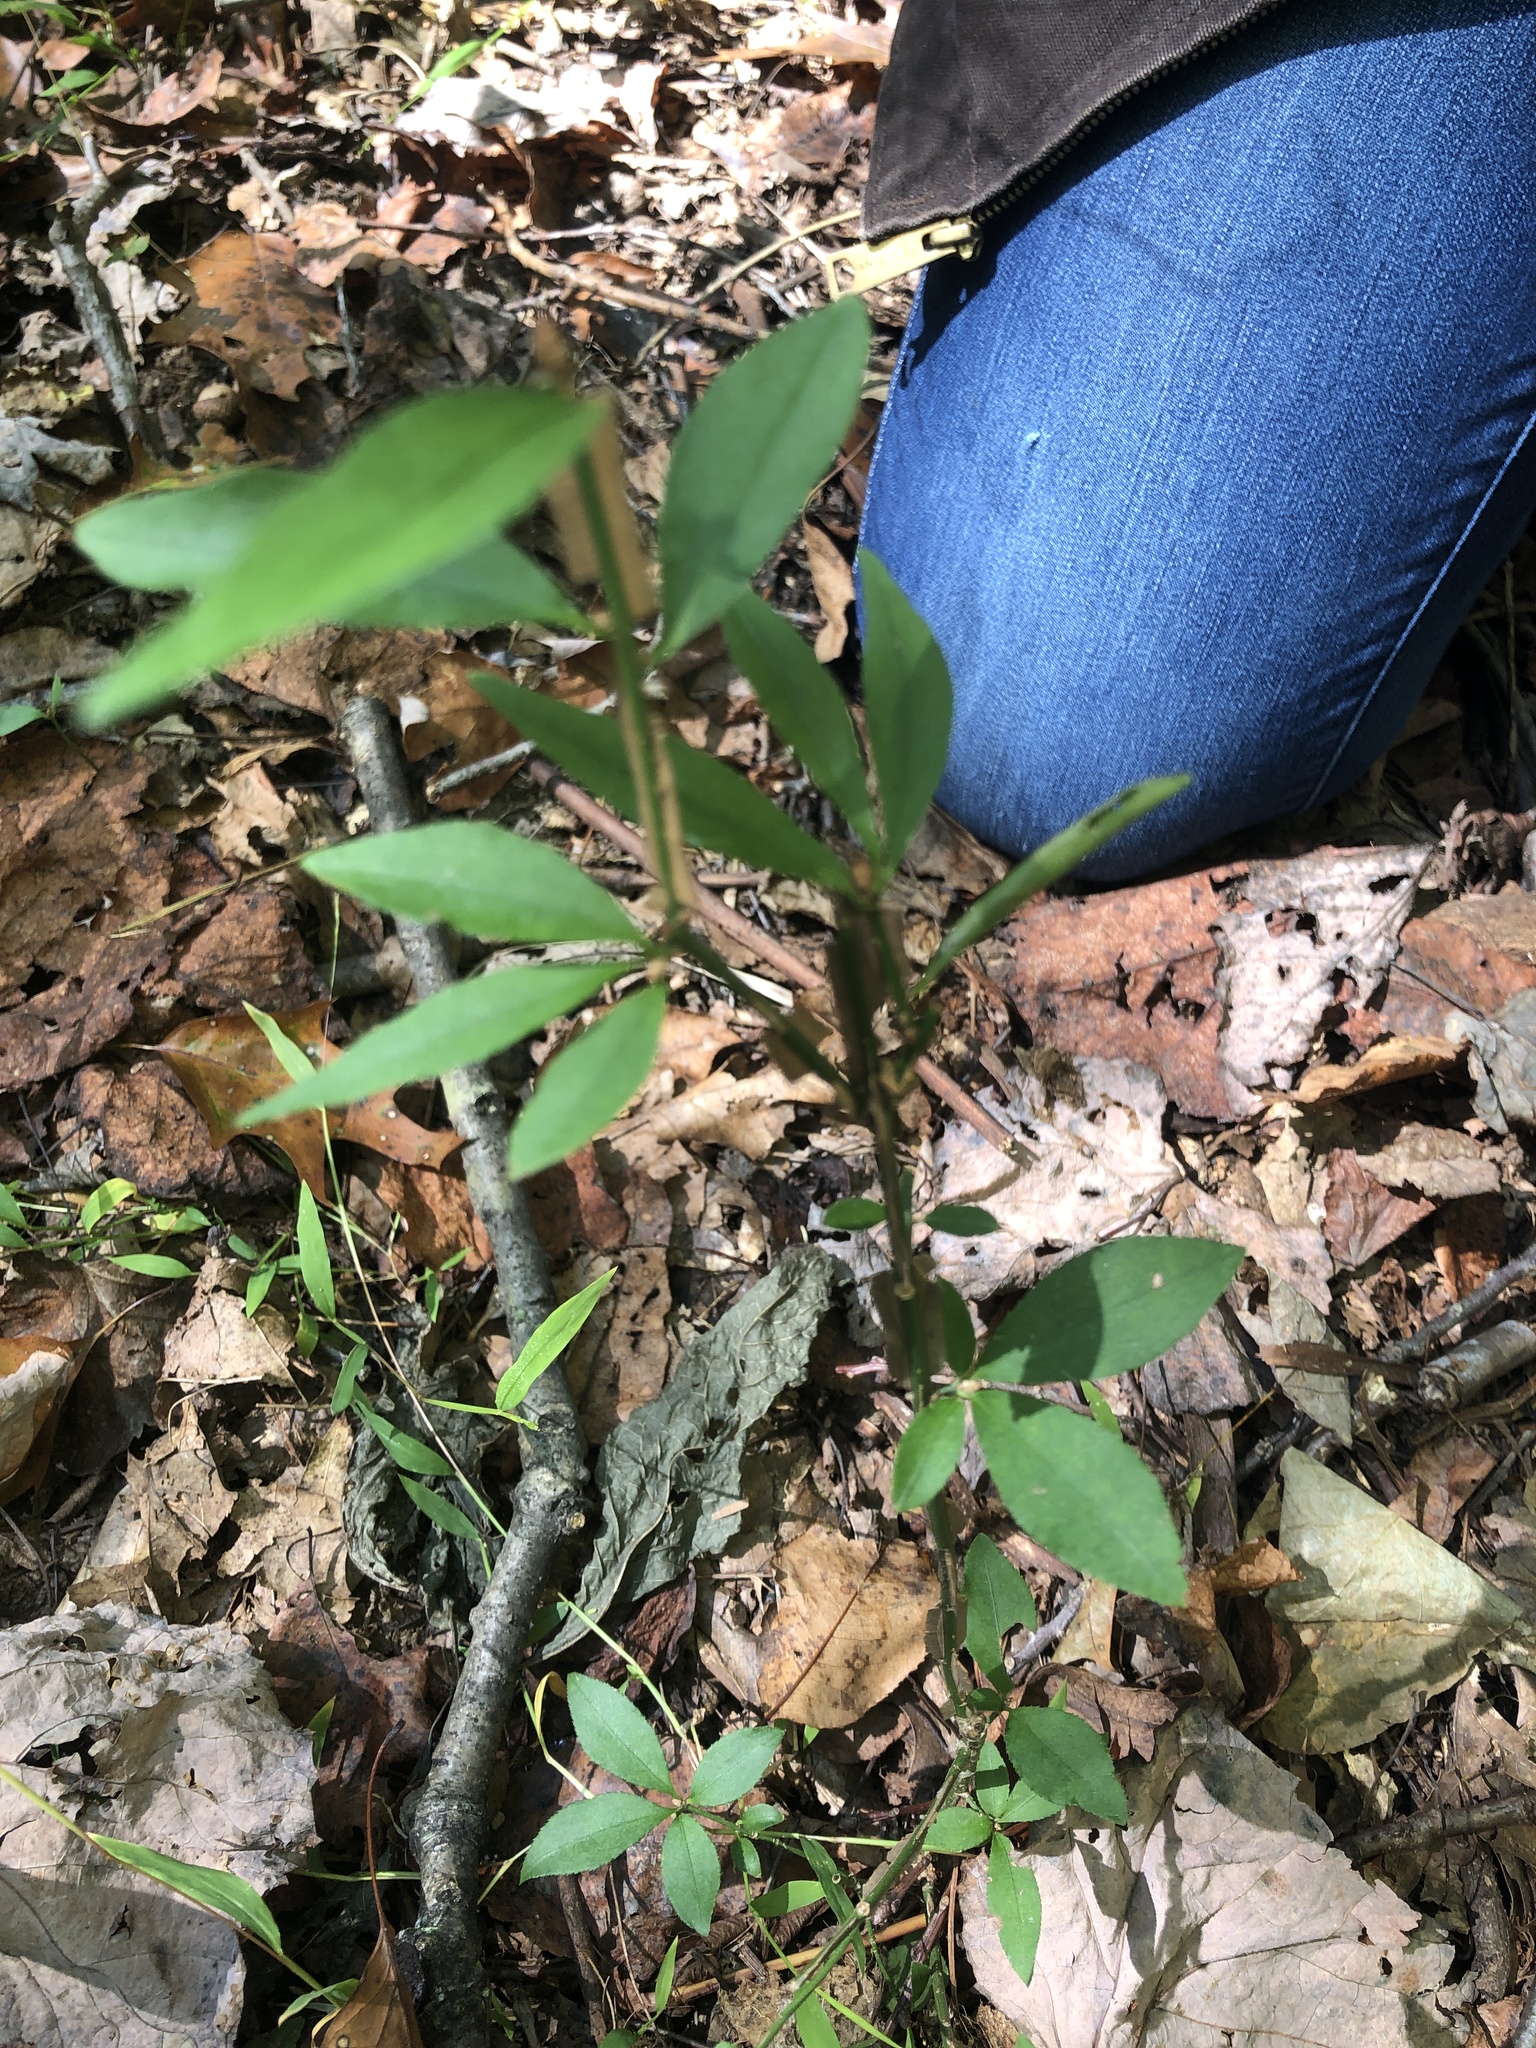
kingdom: Plantae
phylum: Tracheophyta
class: Magnoliopsida
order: Celastrales
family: Celastraceae
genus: Euonymus
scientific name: Euonymus alatus
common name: Winged euonymus
